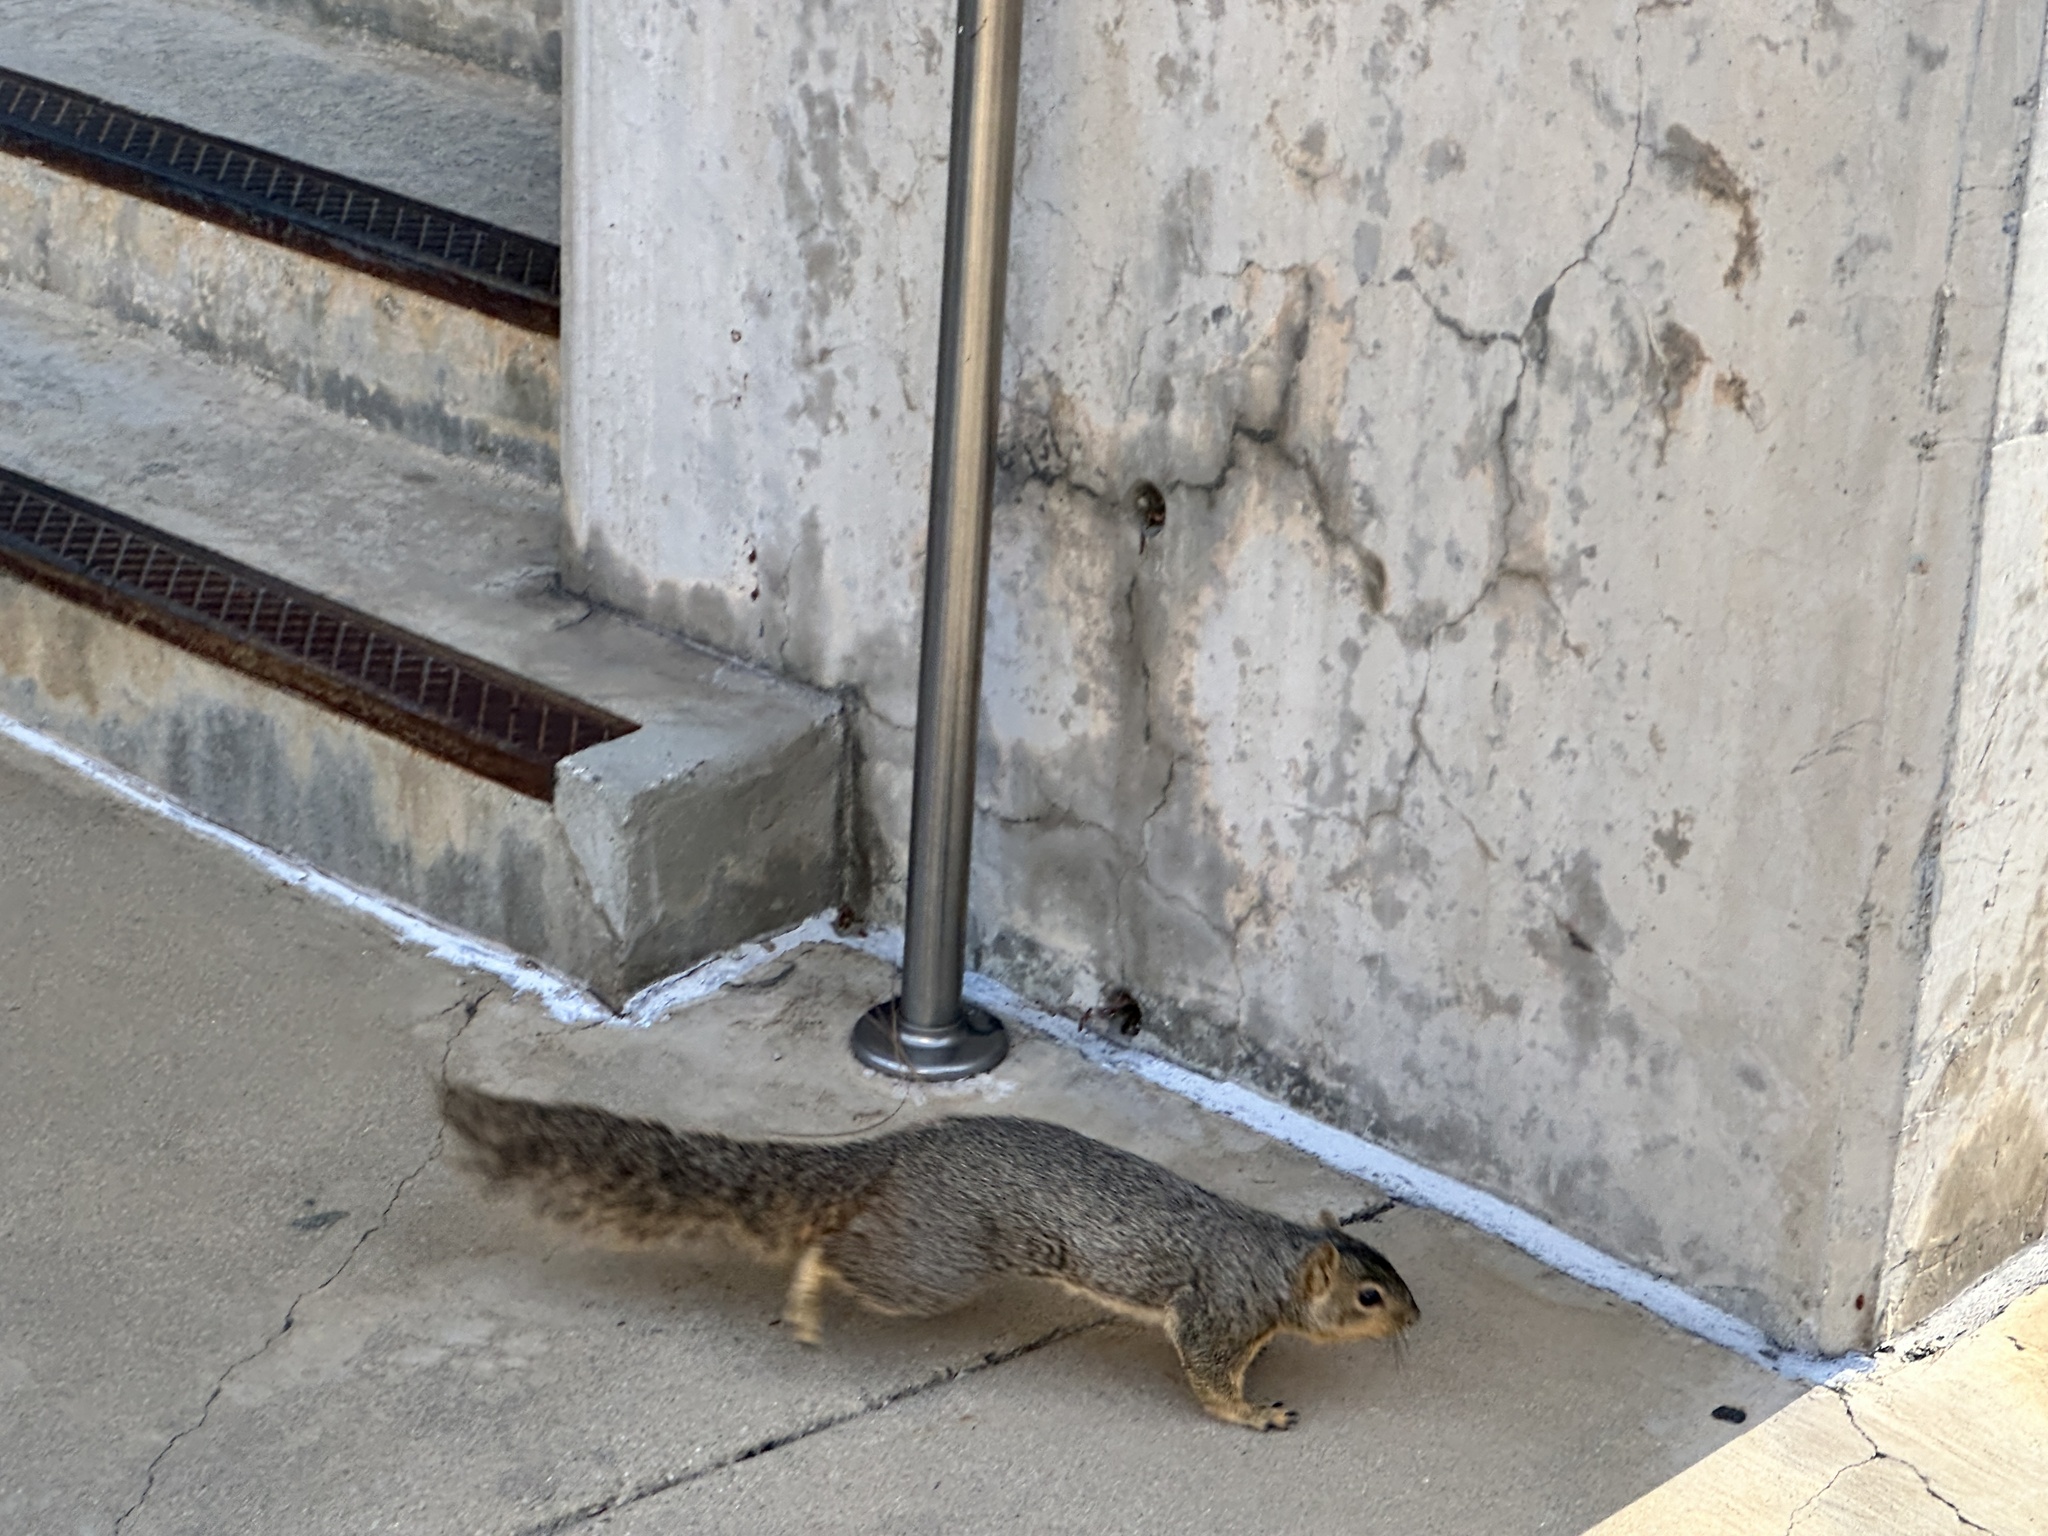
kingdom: Animalia
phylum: Chordata
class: Mammalia
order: Rodentia
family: Sciuridae
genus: Sciurus
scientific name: Sciurus niger
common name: Fox squirrel
